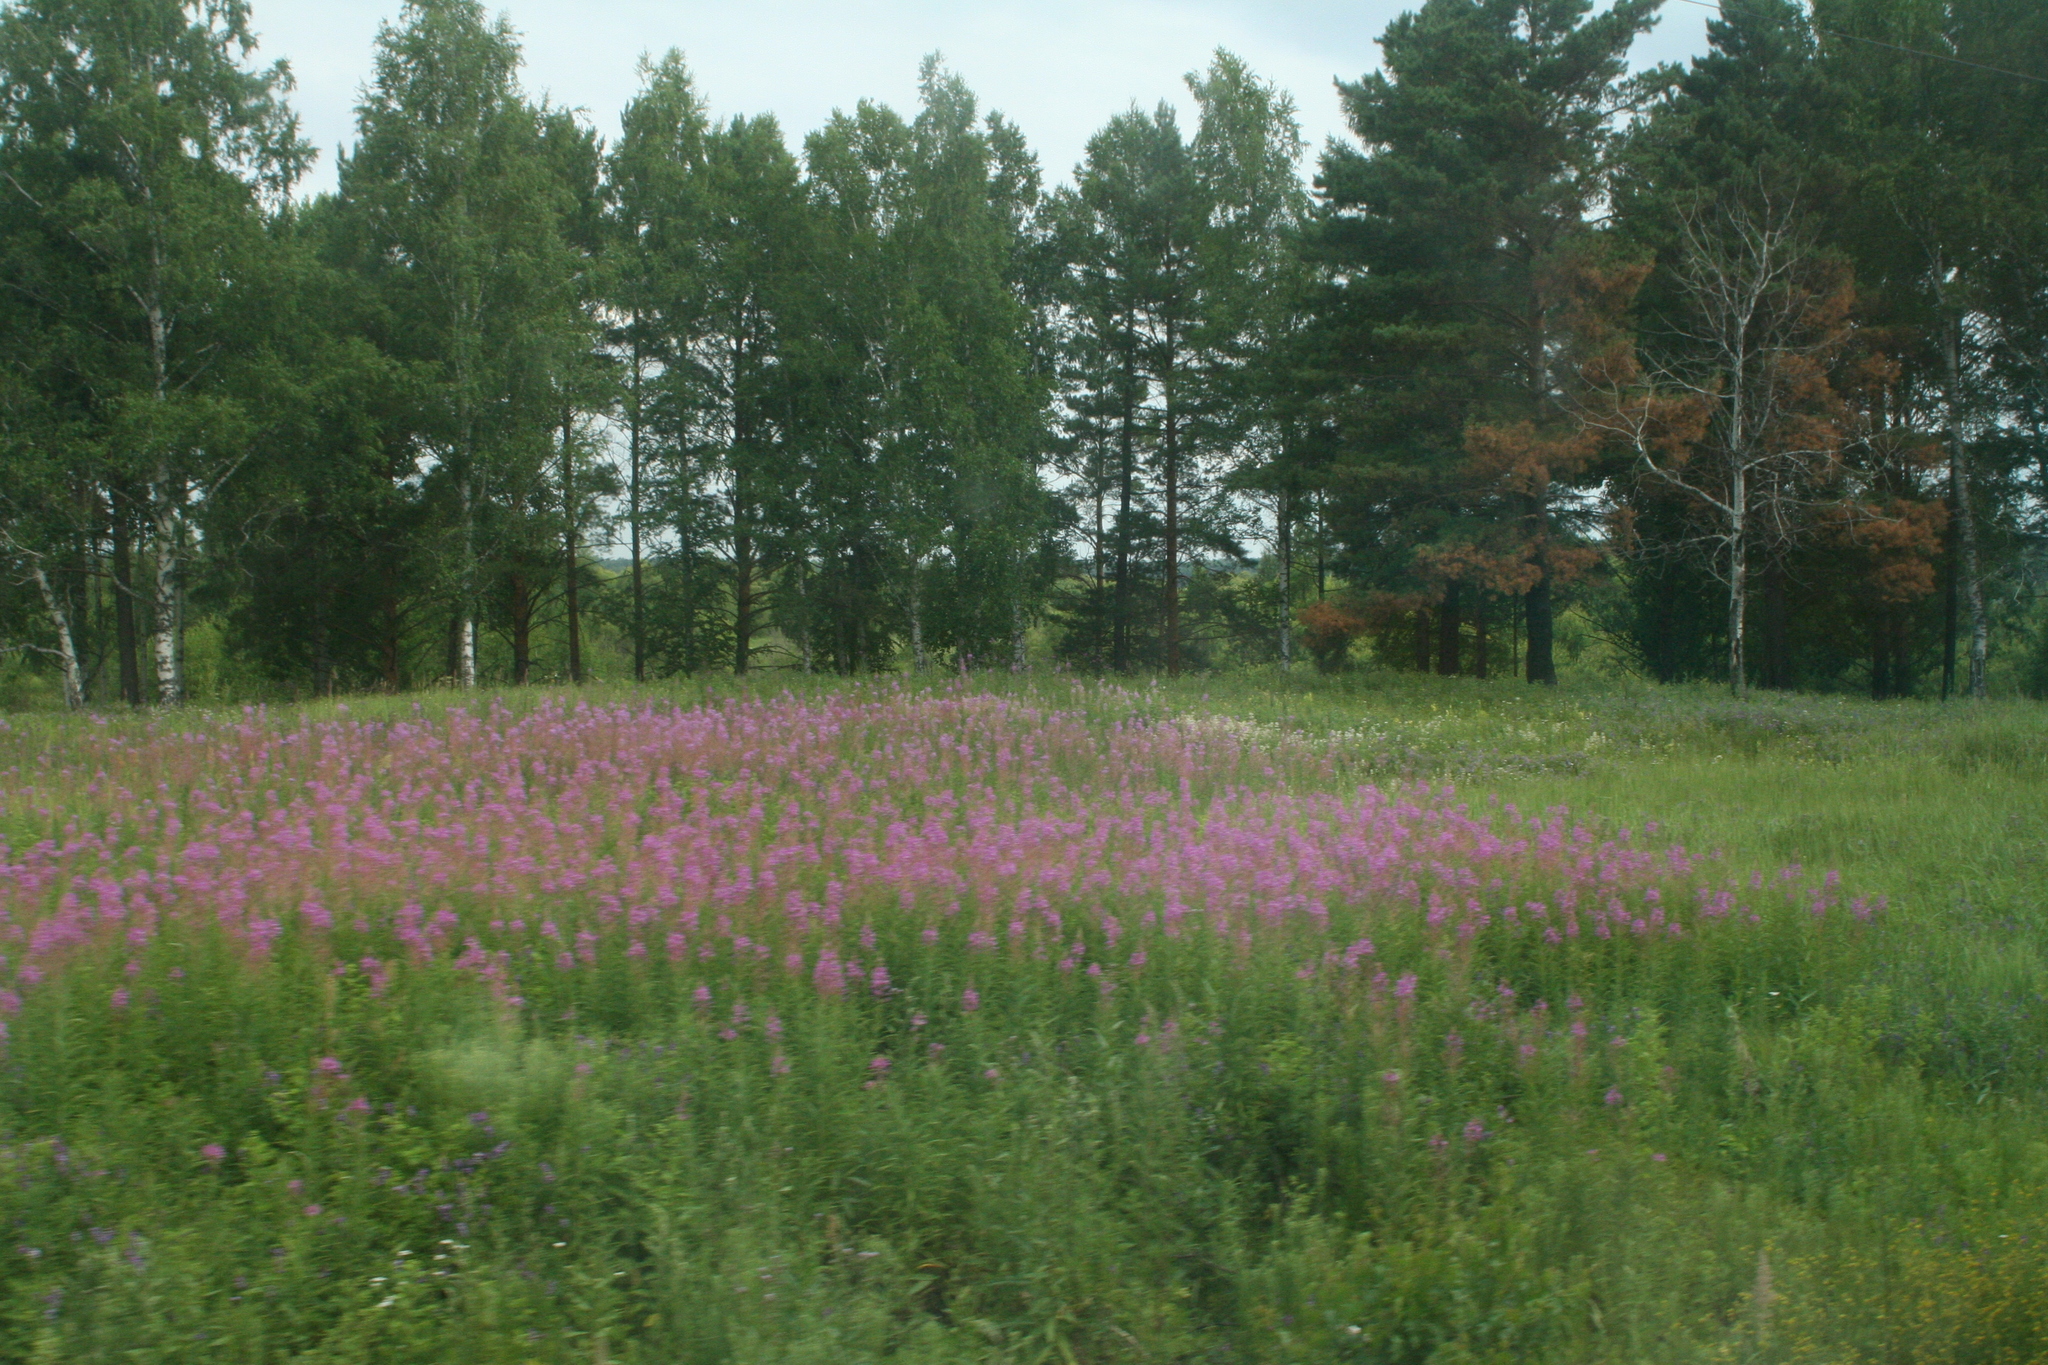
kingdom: Plantae
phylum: Tracheophyta
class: Magnoliopsida
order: Fagales
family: Betulaceae
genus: Betula
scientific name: Betula pendula
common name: Silver birch
